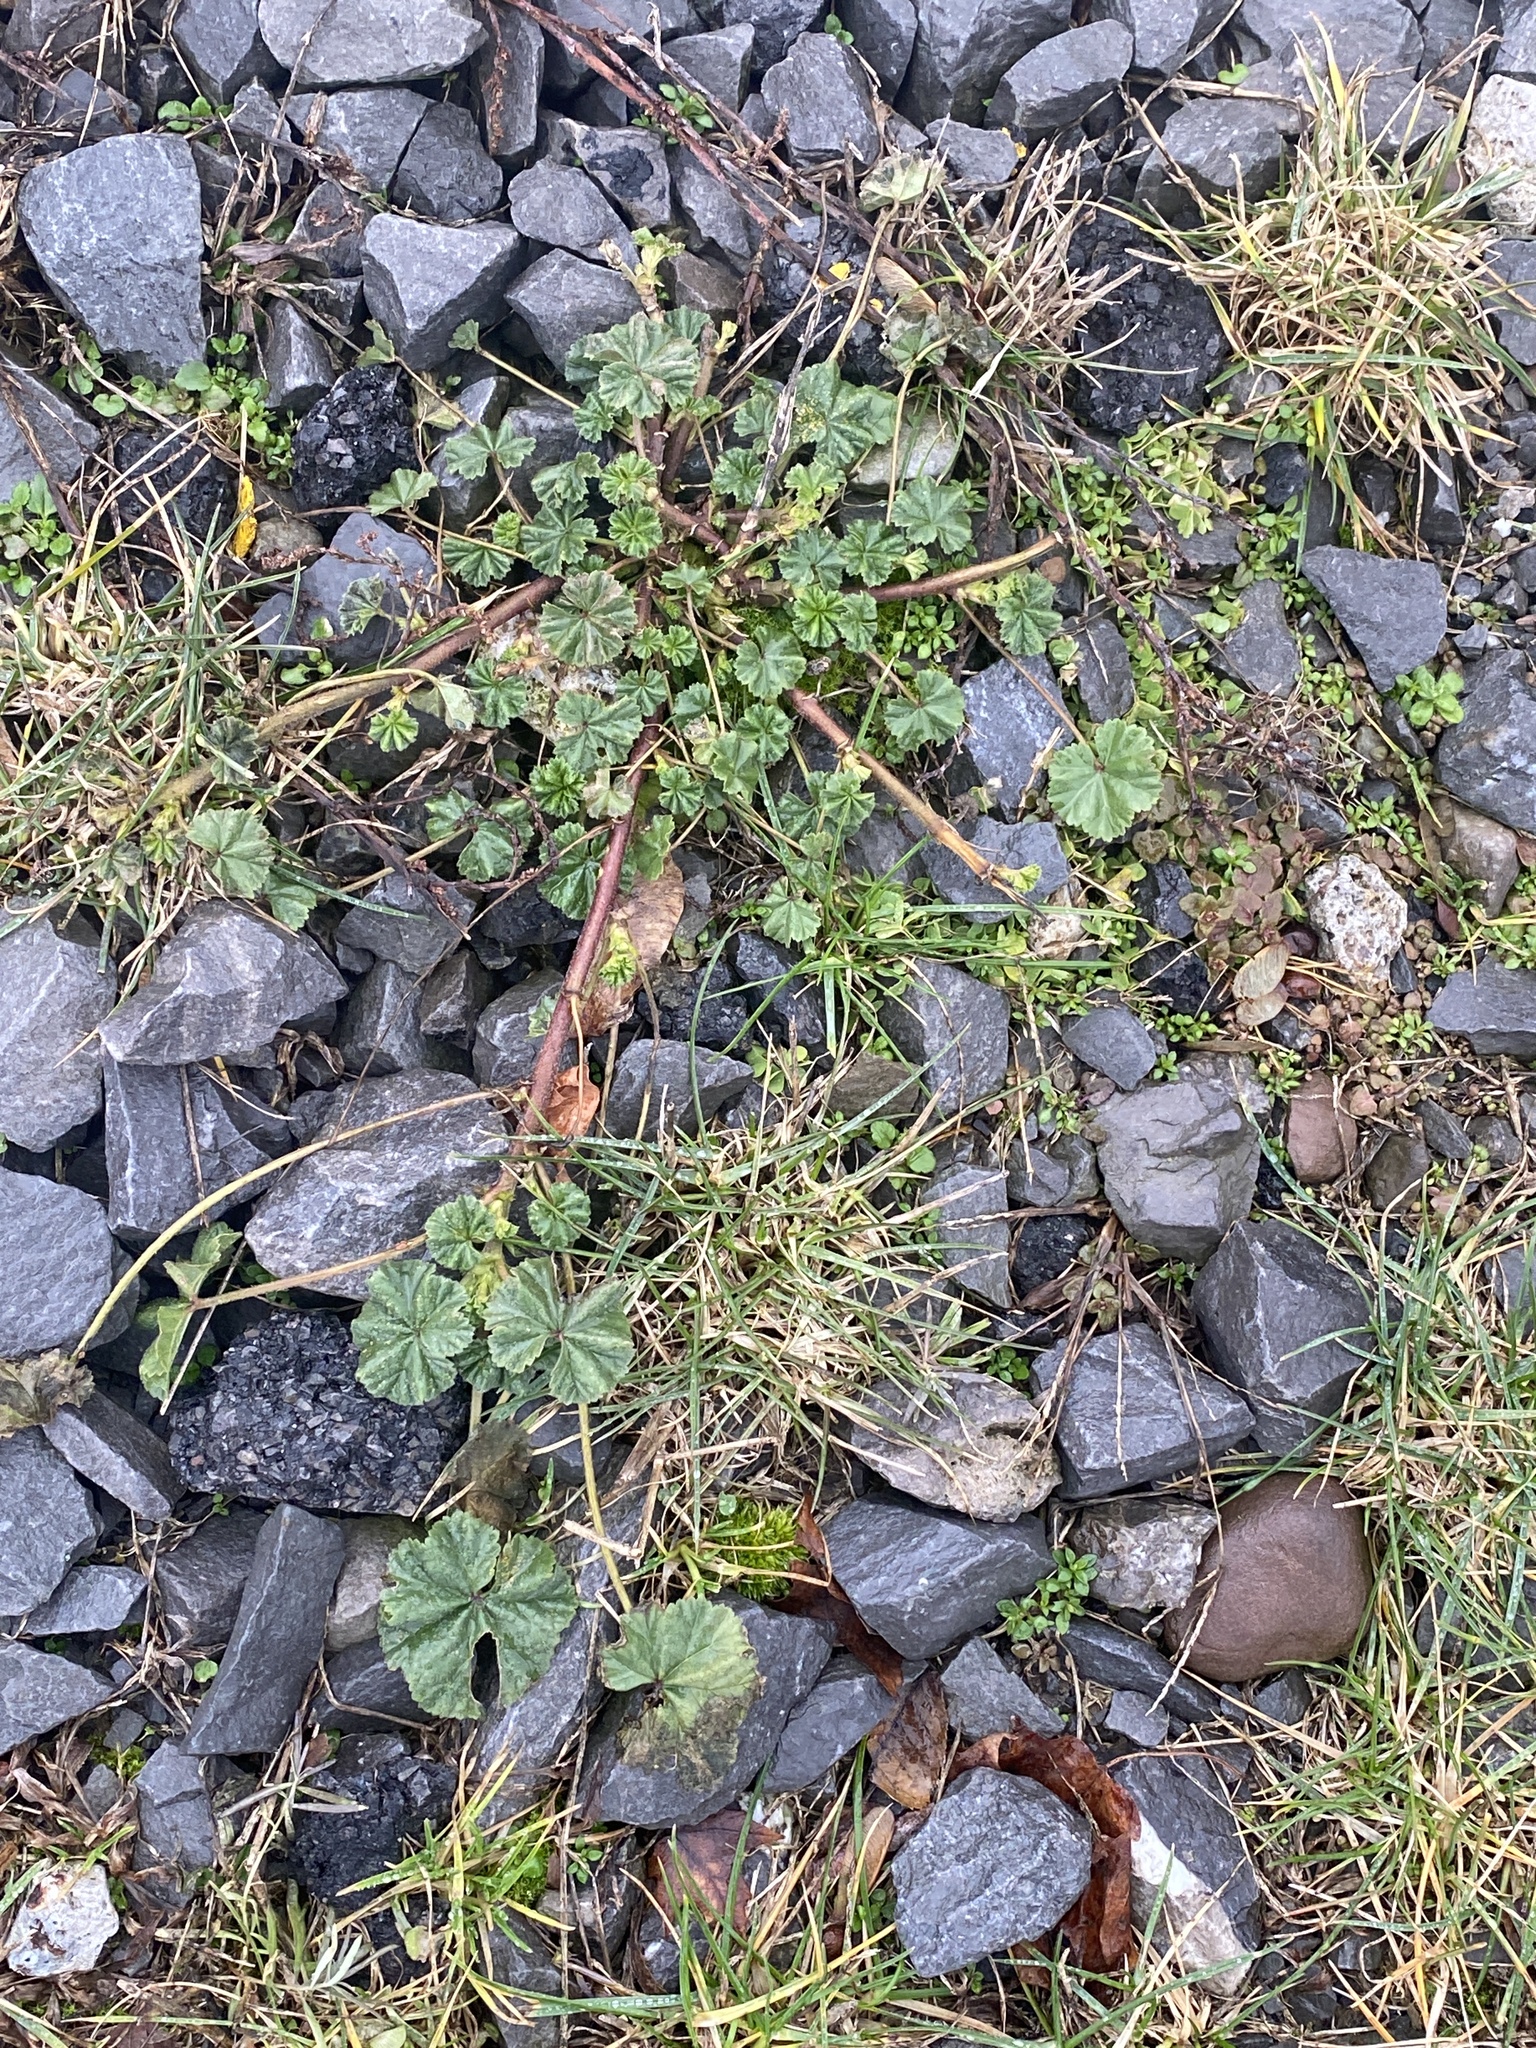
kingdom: Plantae
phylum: Tracheophyta
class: Magnoliopsida
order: Malvales
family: Malvaceae
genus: Malva
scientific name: Malva neglecta
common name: Common mallow
